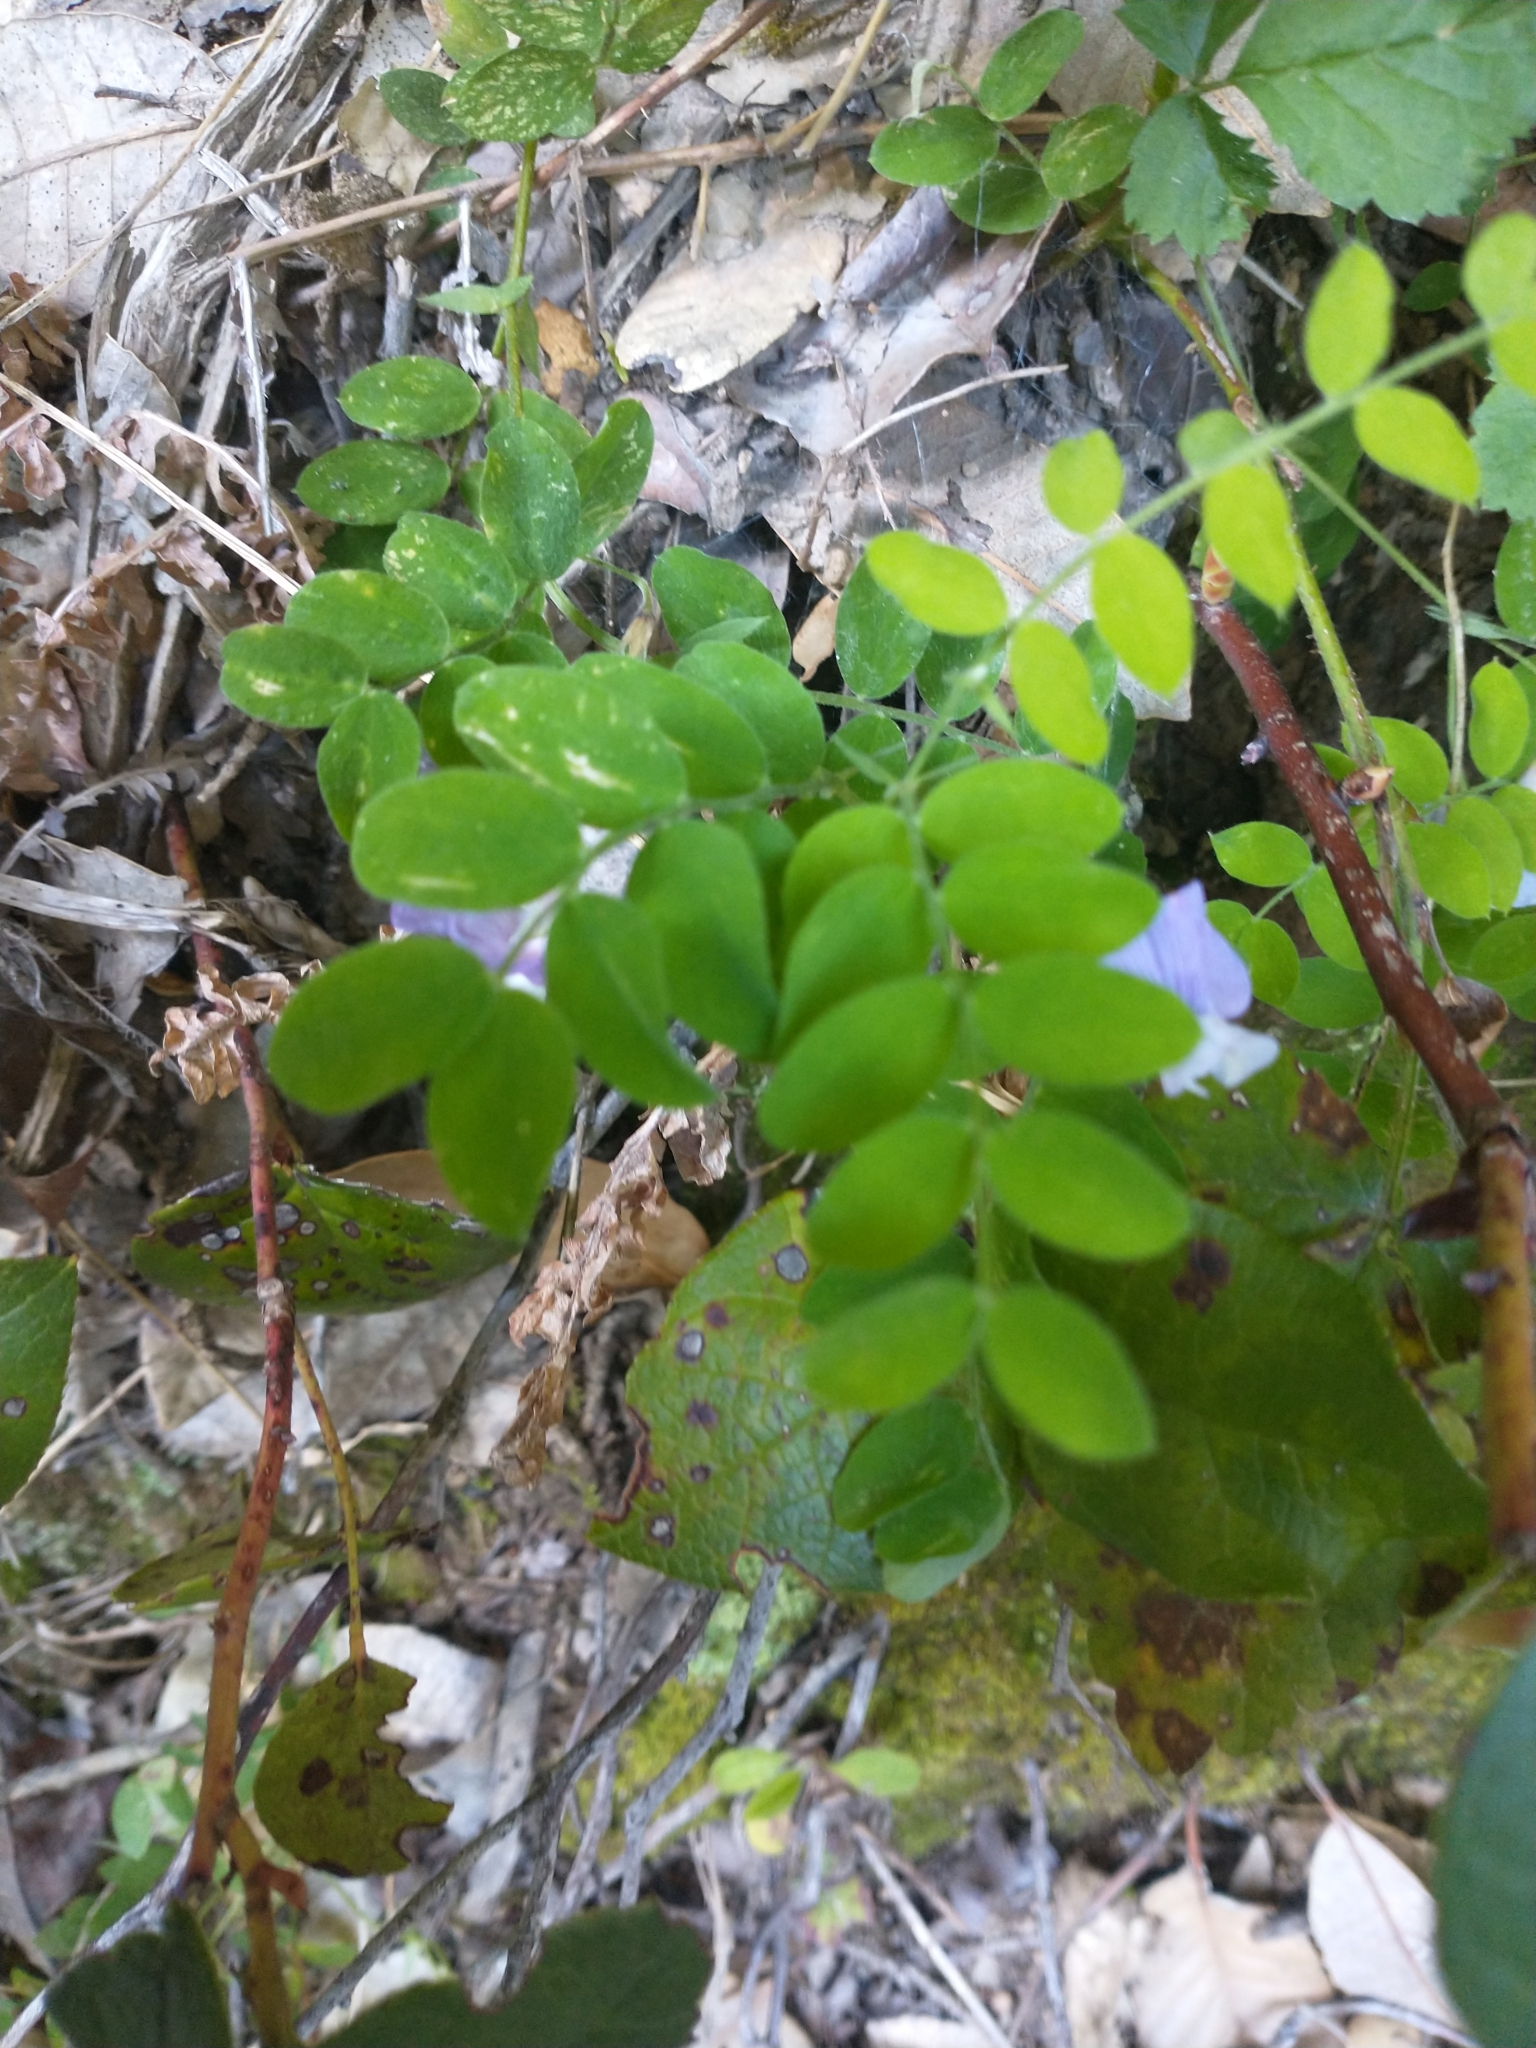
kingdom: Plantae
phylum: Tracheophyta
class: Magnoliopsida
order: Fabales
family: Fabaceae
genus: Lathyrus
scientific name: Lathyrus torreyi
